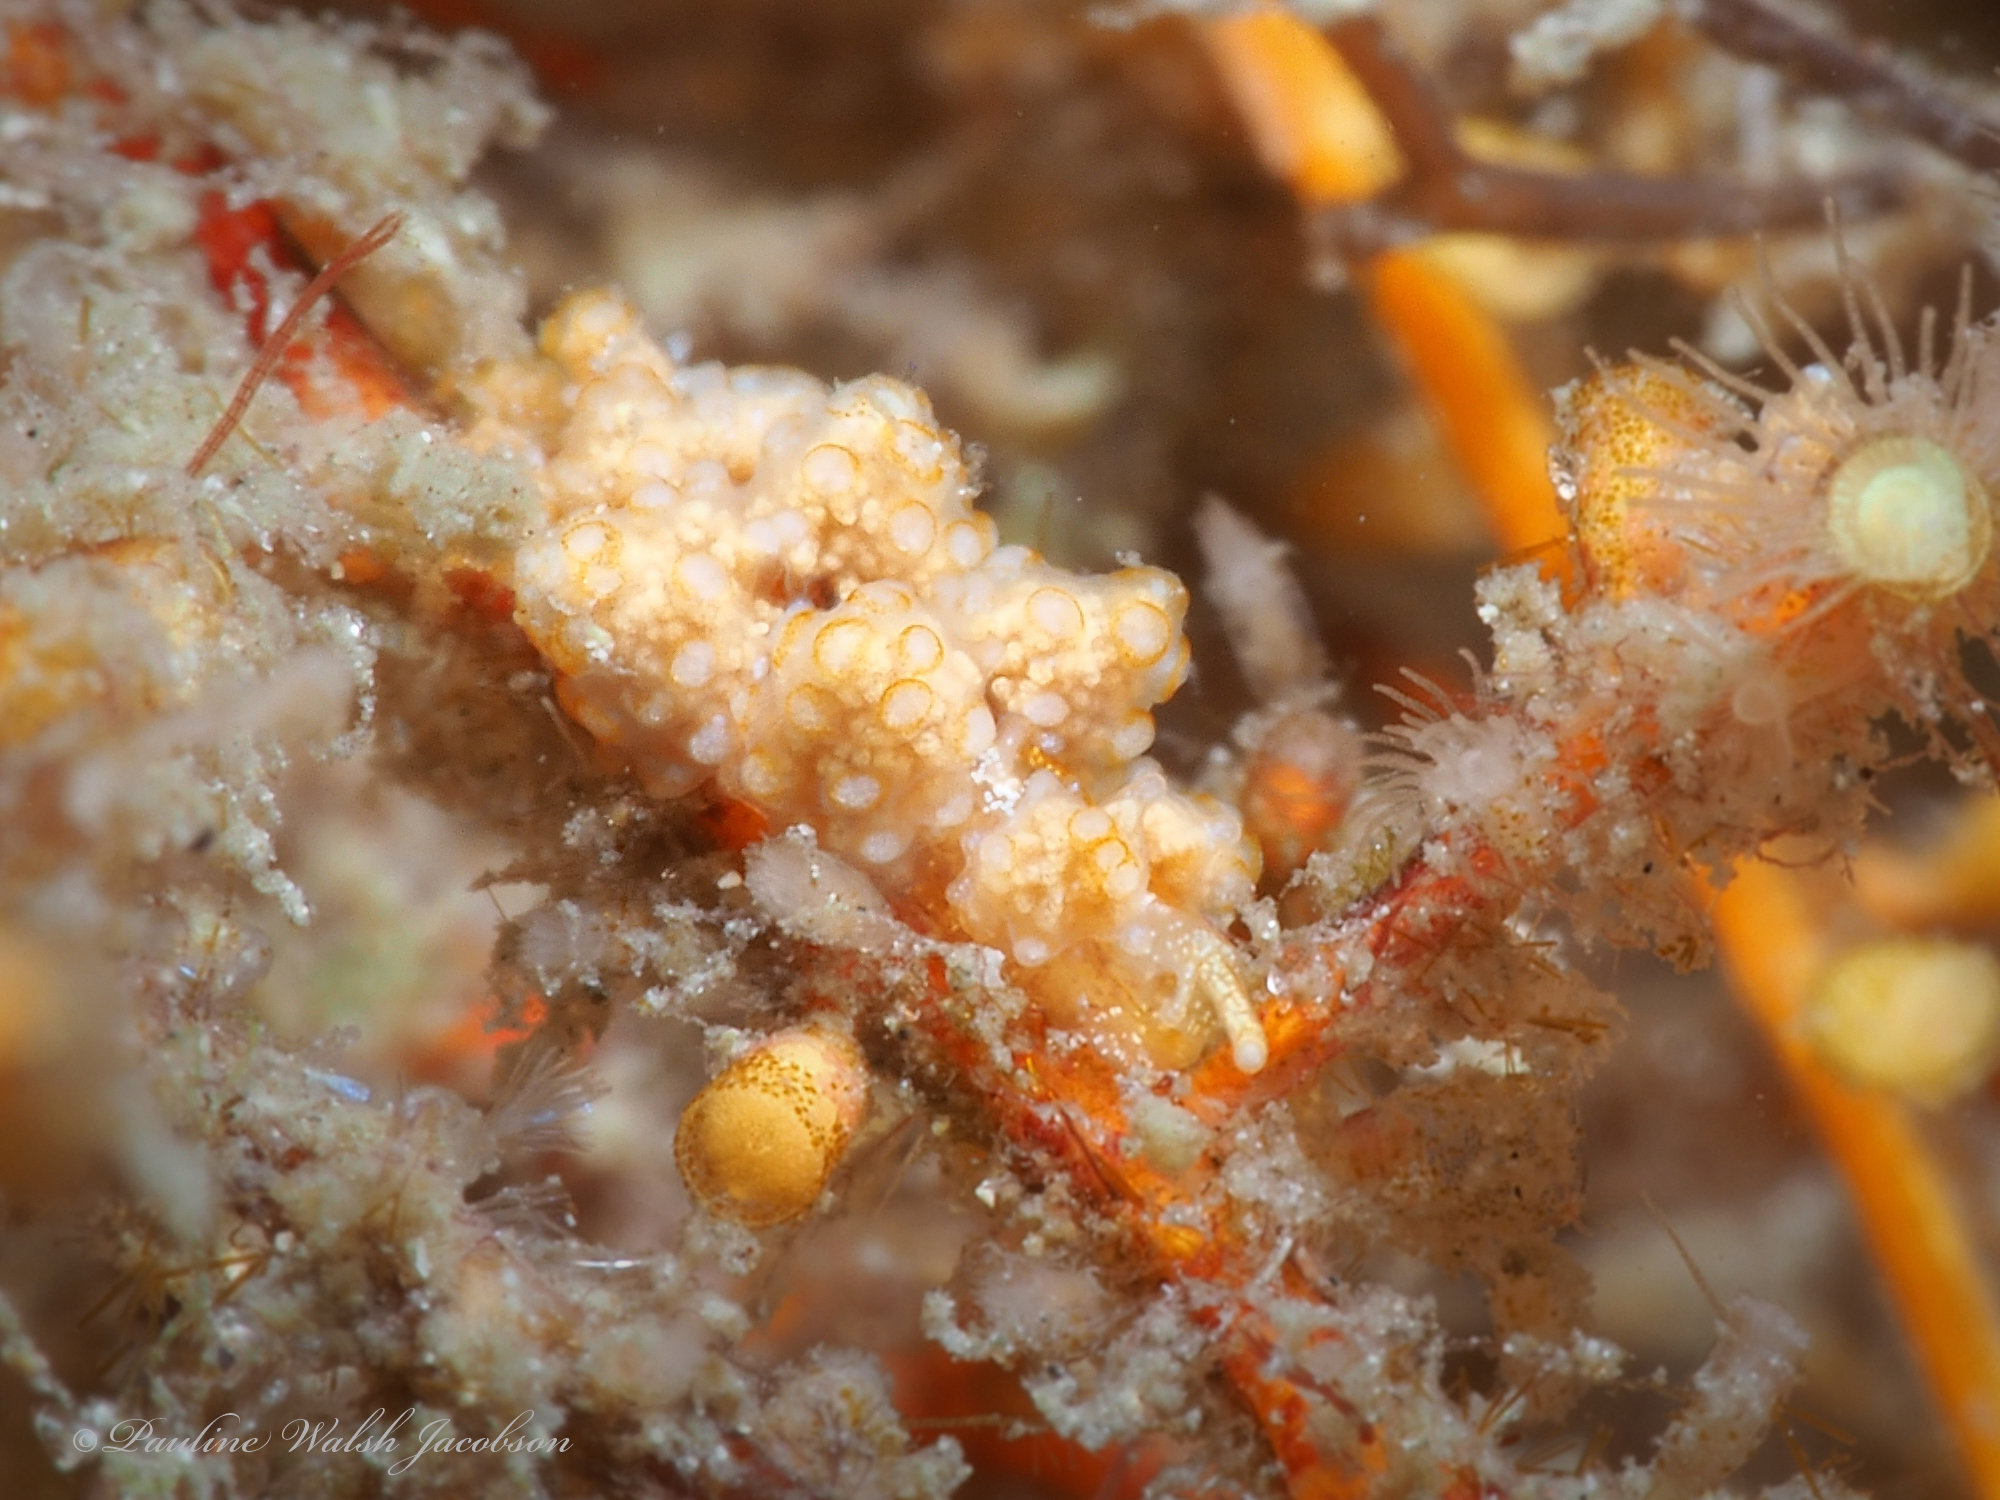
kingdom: Animalia
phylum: Mollusca
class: Gastropoda
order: Nudibranchia
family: Dotidae
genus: Doto
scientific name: Doto torrelavega
